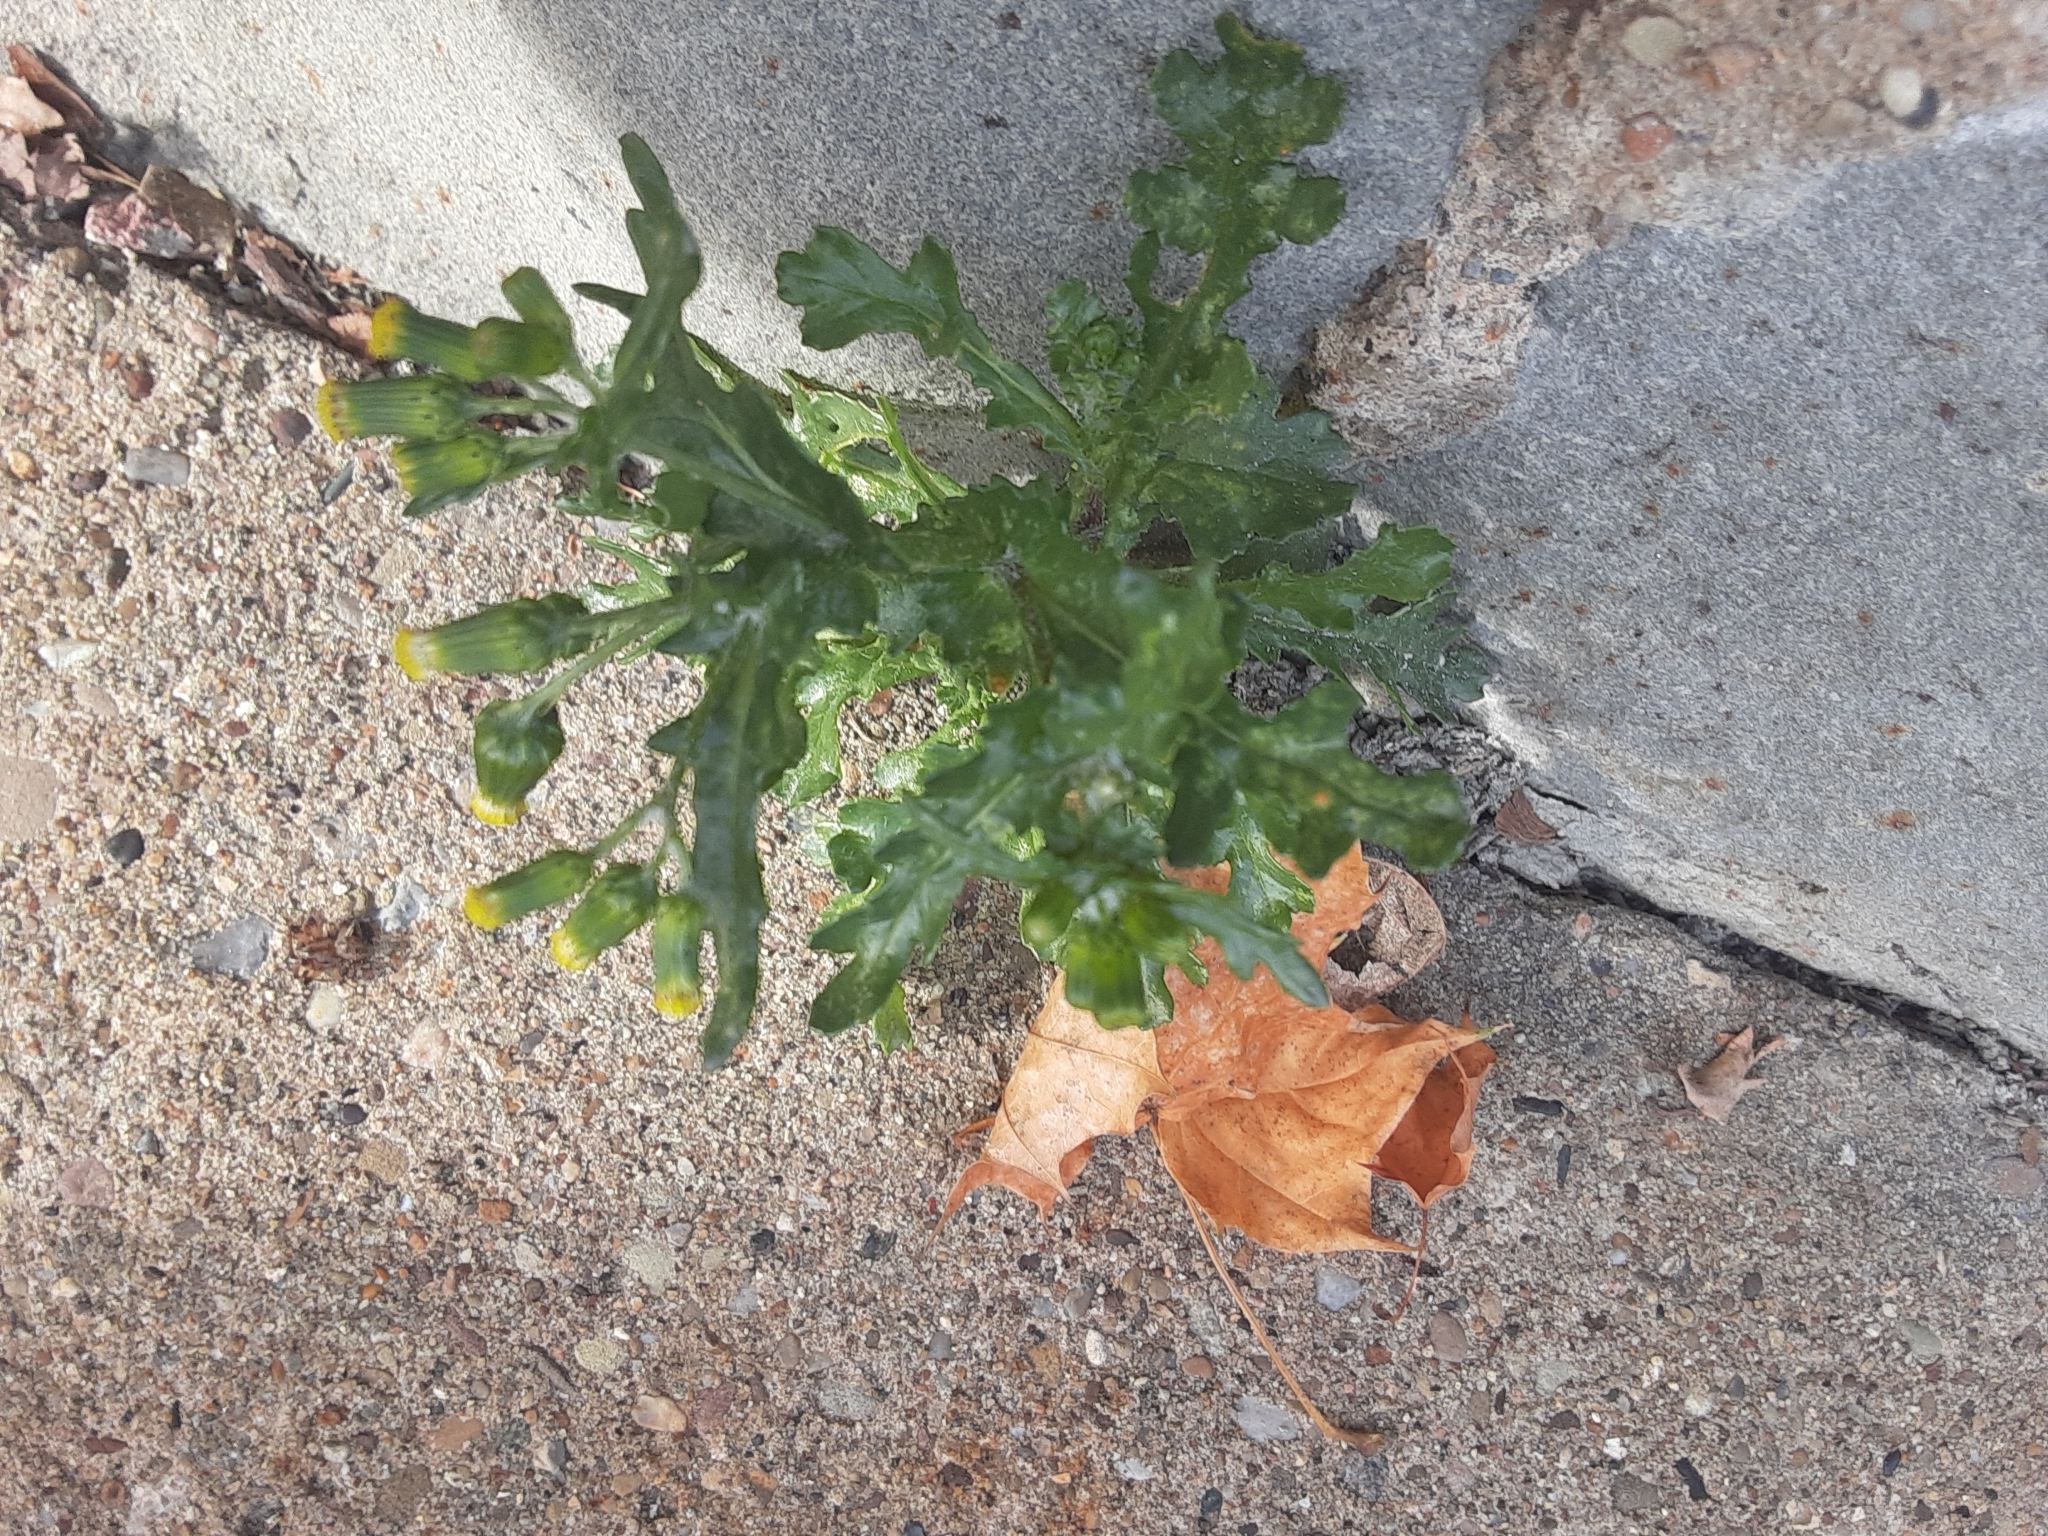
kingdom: Plantae
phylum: Tracheophyta
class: Magnoliopsida
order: Asterales
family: Asteraceae
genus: Senecio
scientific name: Senecio vulgaris
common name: Old-man-in-the-spring
